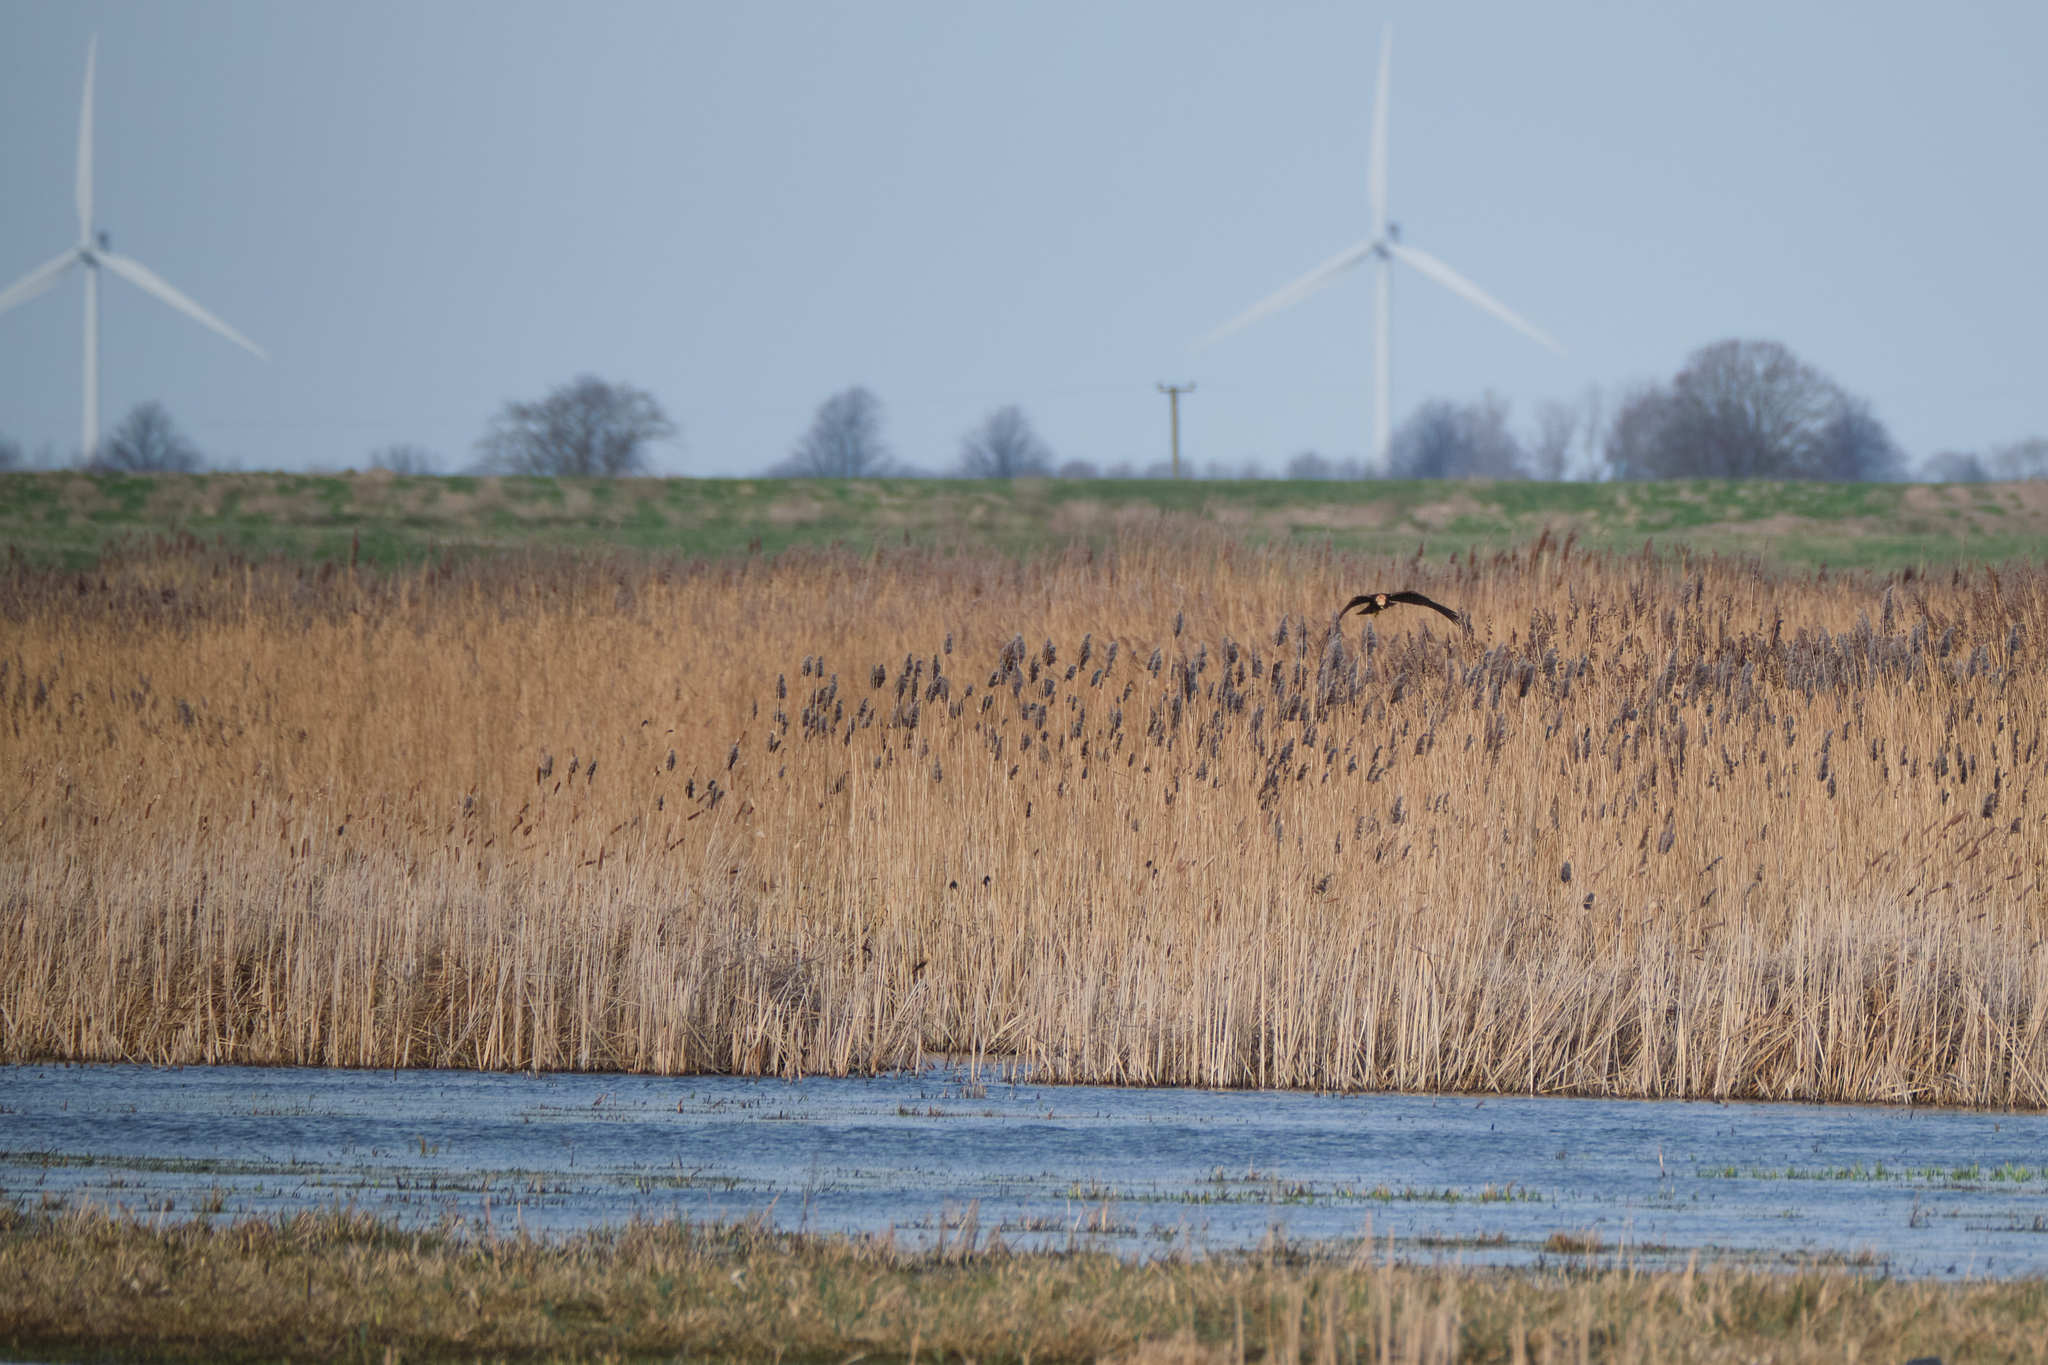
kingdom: Animalia
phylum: Chordata
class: Aves
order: Accipitriformes
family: Accipitridae
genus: Circus
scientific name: Circus aeruginosus
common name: Western marsh harrier
